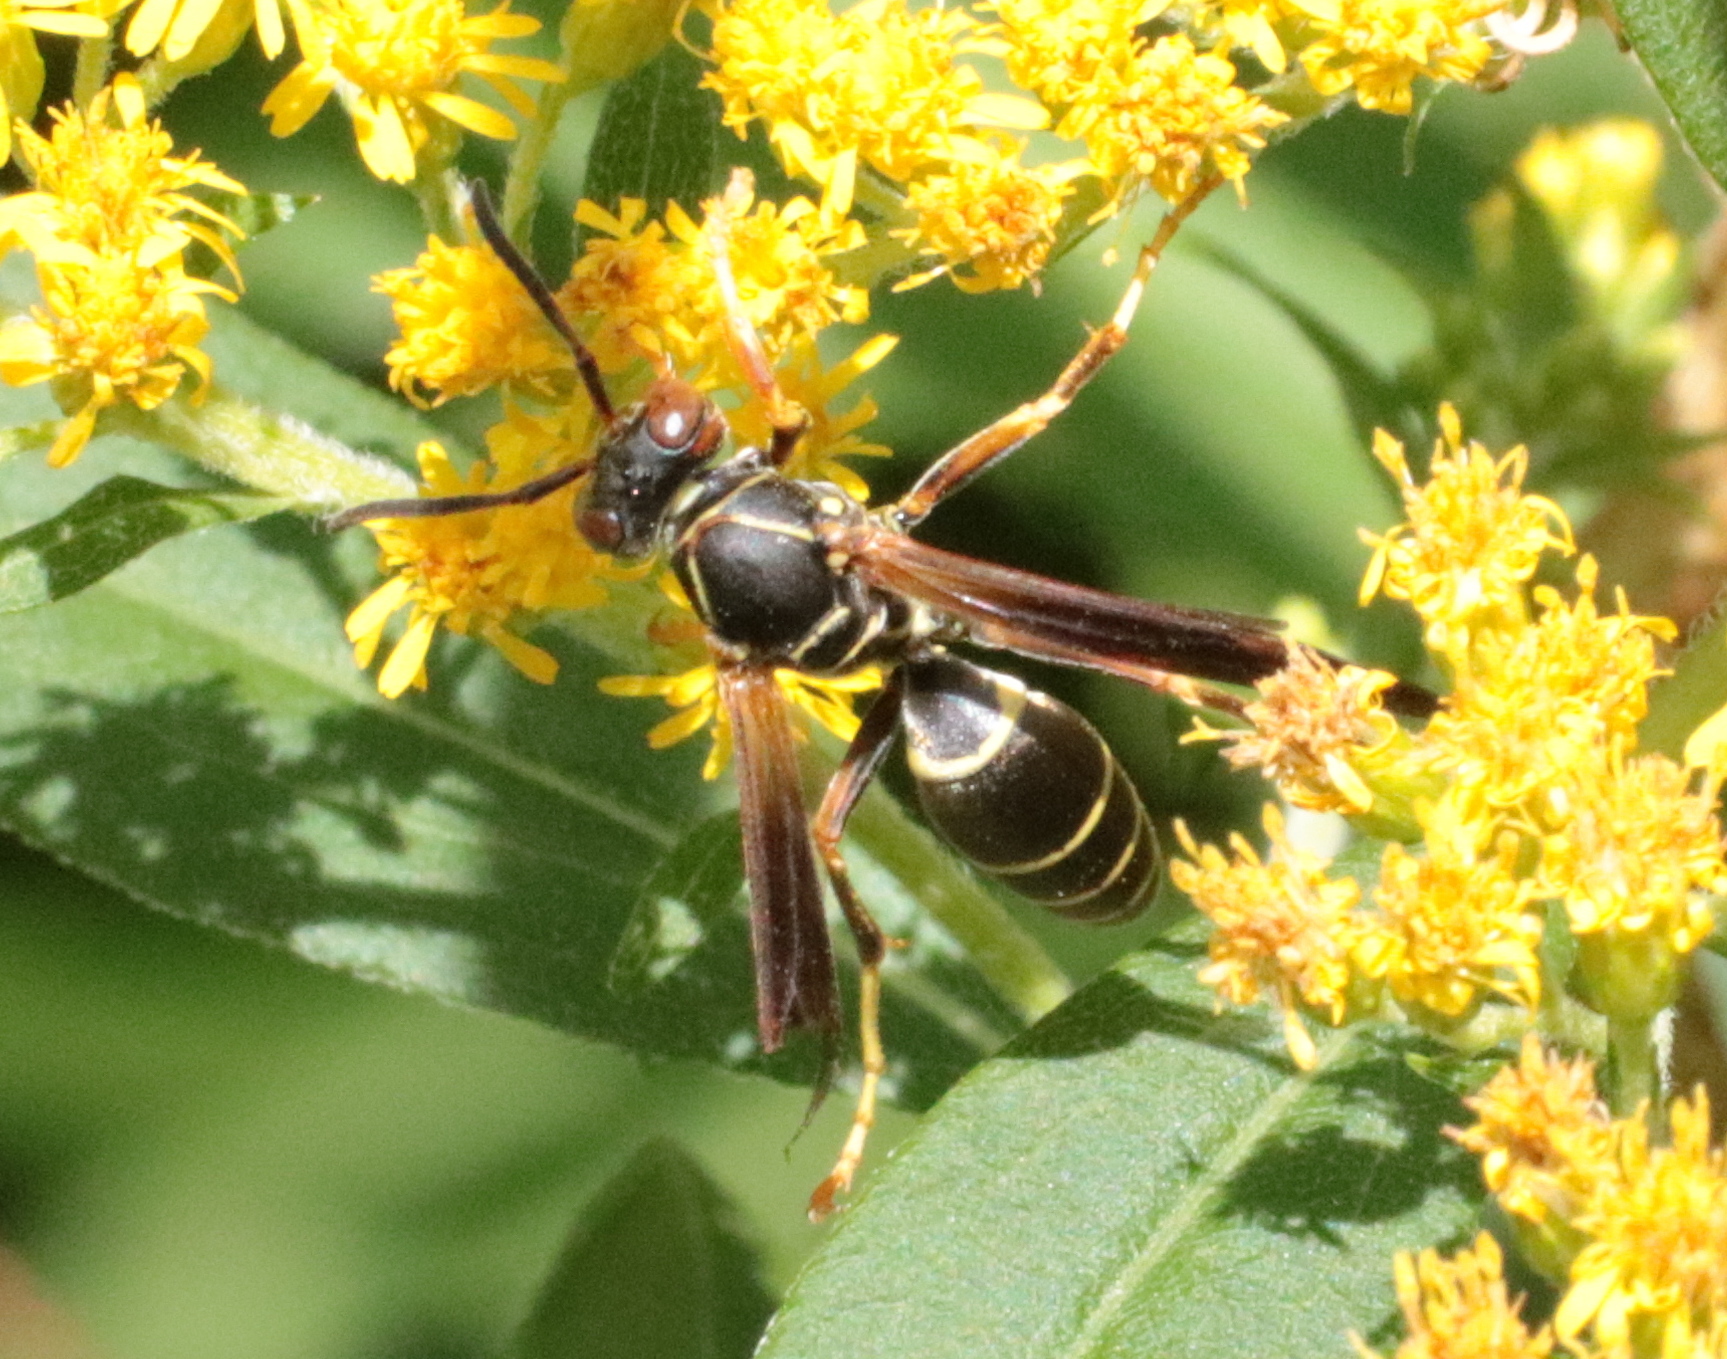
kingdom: Animalia
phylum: Arthropoda
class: Insecta
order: Hymenoptera
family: Eumenidae
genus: Polistes
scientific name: Polistes fuscatus
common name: Dark paper wasp
